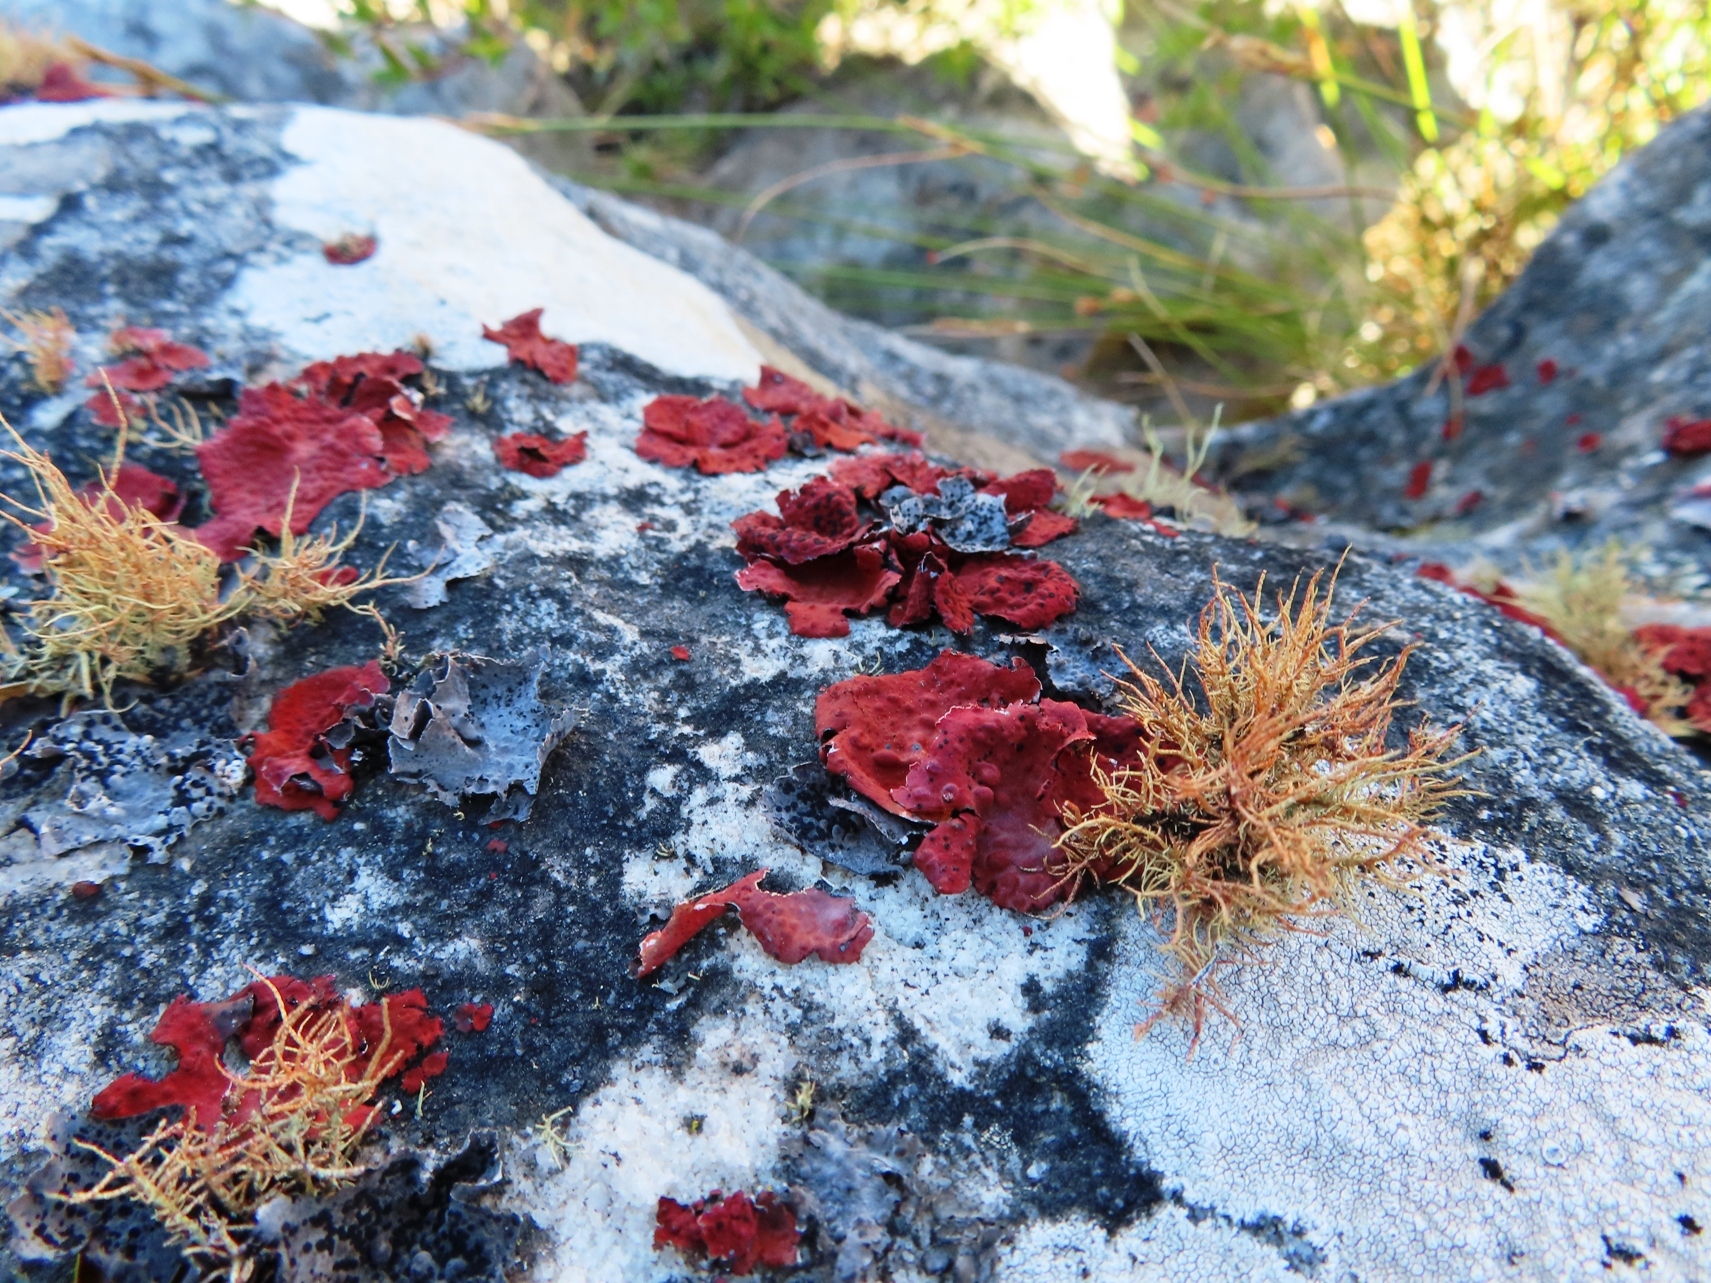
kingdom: Fungi
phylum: Ascomycota
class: Lecanoromycetes
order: Umbilicariales
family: Umbilicariaceae
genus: Lasallia
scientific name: Lasallia rubiginosa
